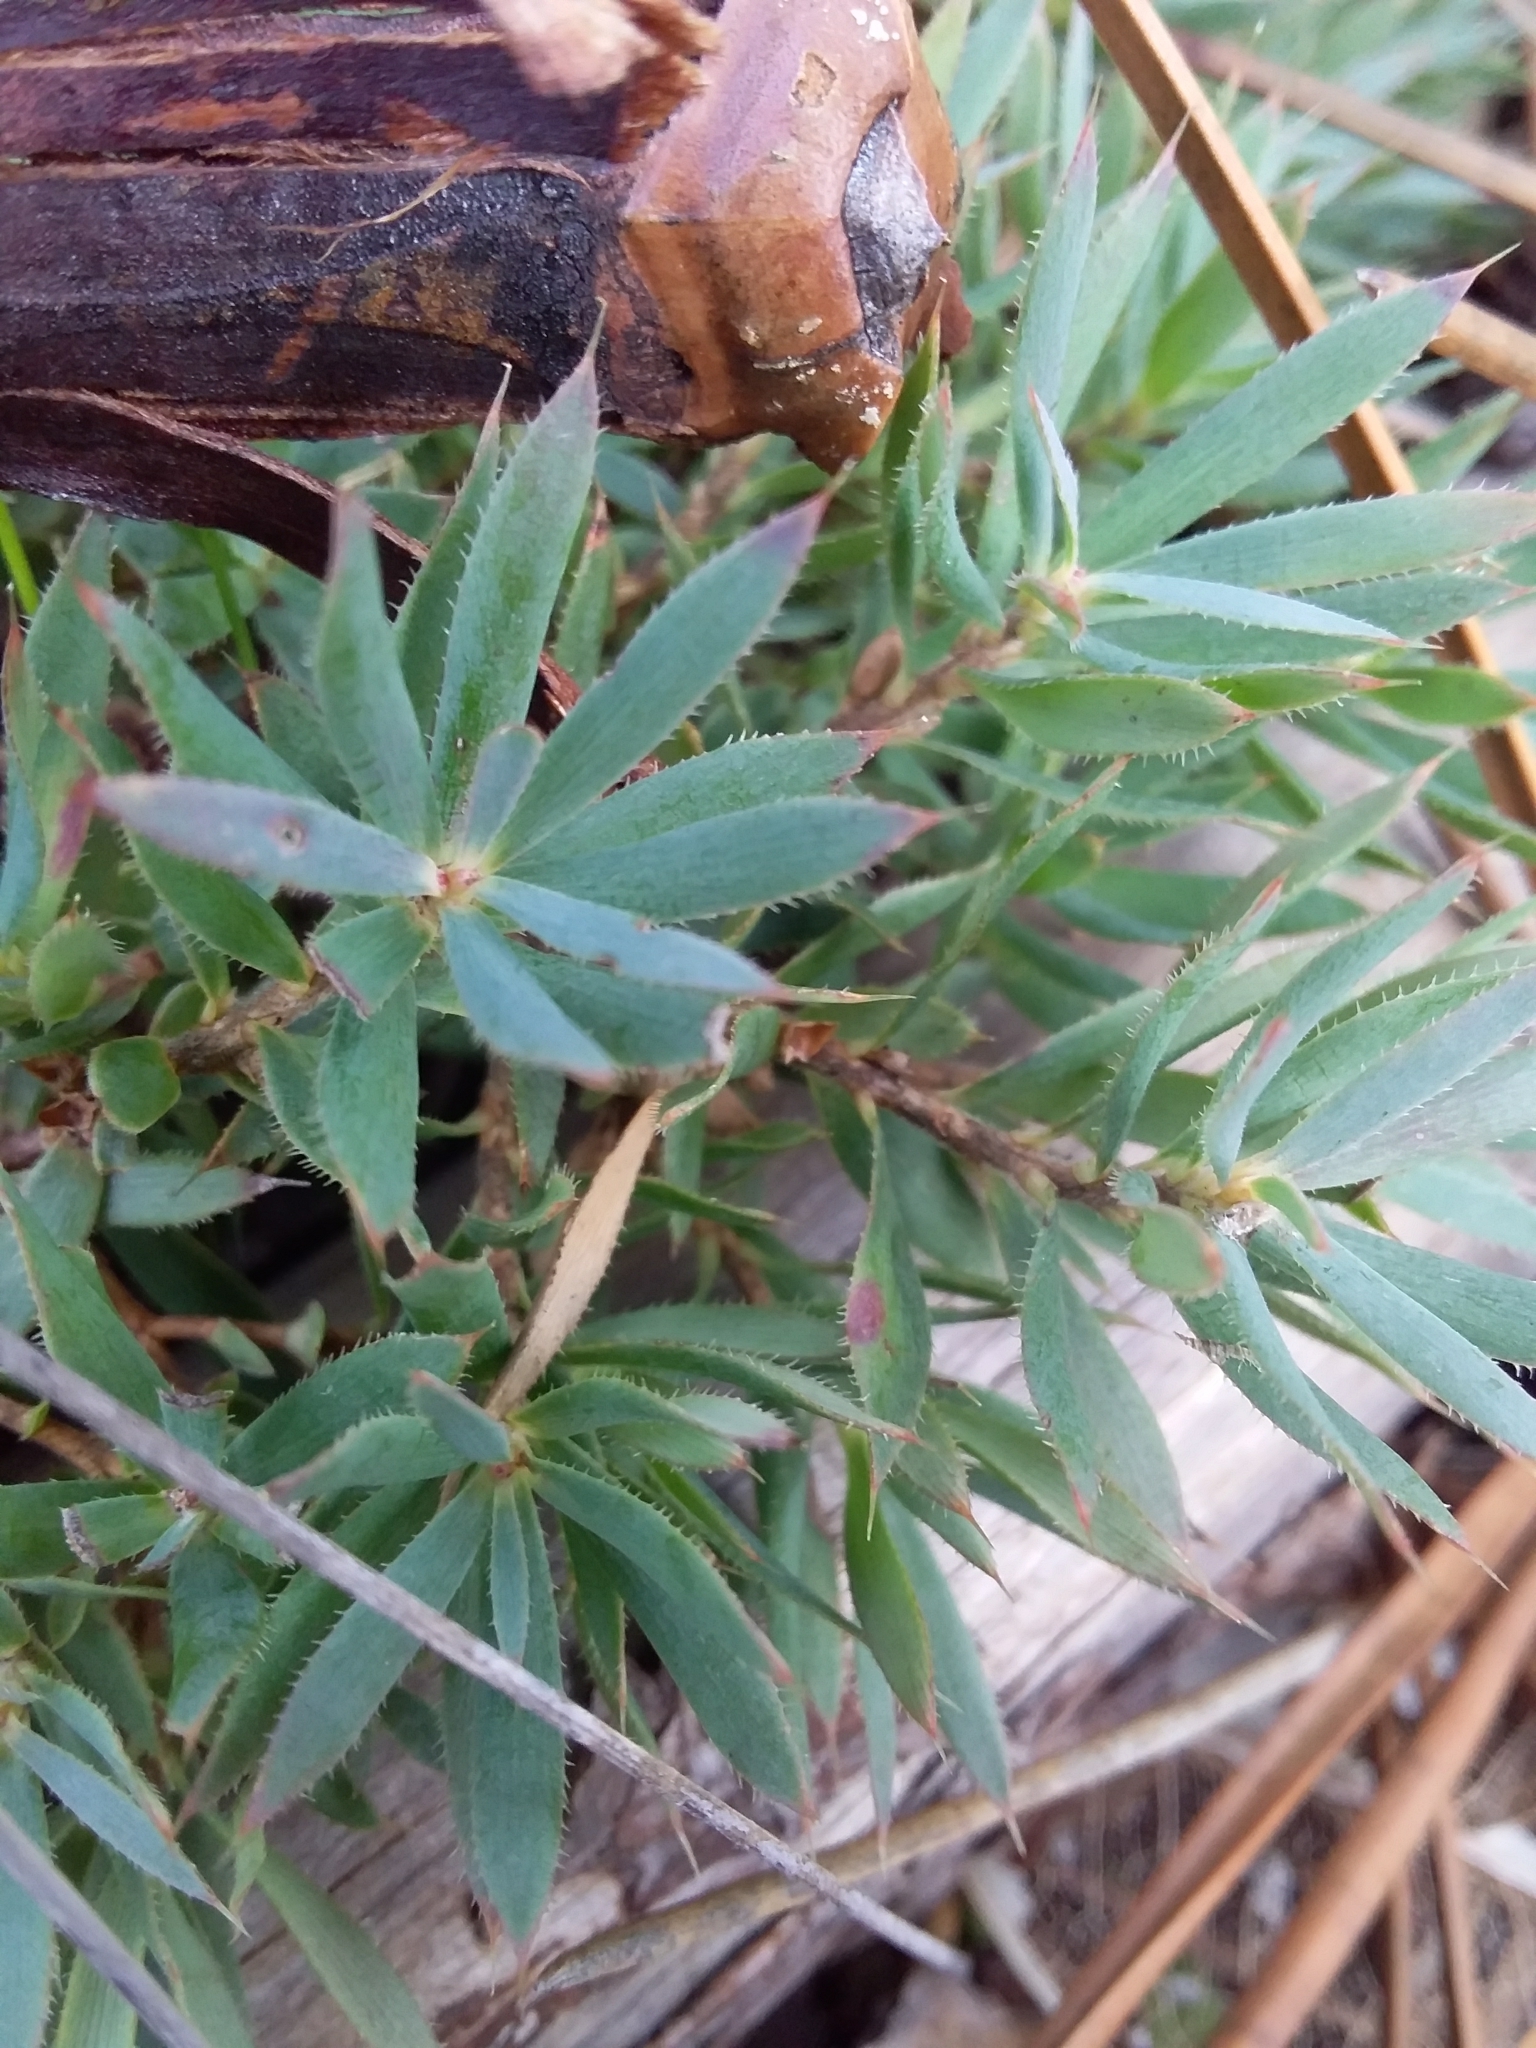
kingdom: Plantae
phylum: Tracheophyta
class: Magnoliopsida
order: Ericales
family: Ericaceae
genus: Styphelia
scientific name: Styphelia humifusa
